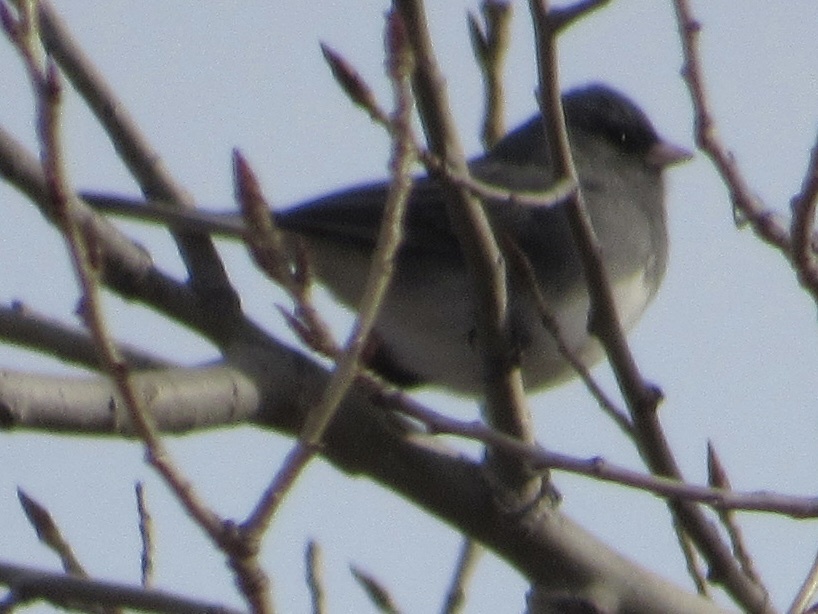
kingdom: Animalia
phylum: Chordata
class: Aves
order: Passeriformes
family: Passerellidae
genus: Junco
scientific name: Junco hyemalis
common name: Dark-eyed junco
